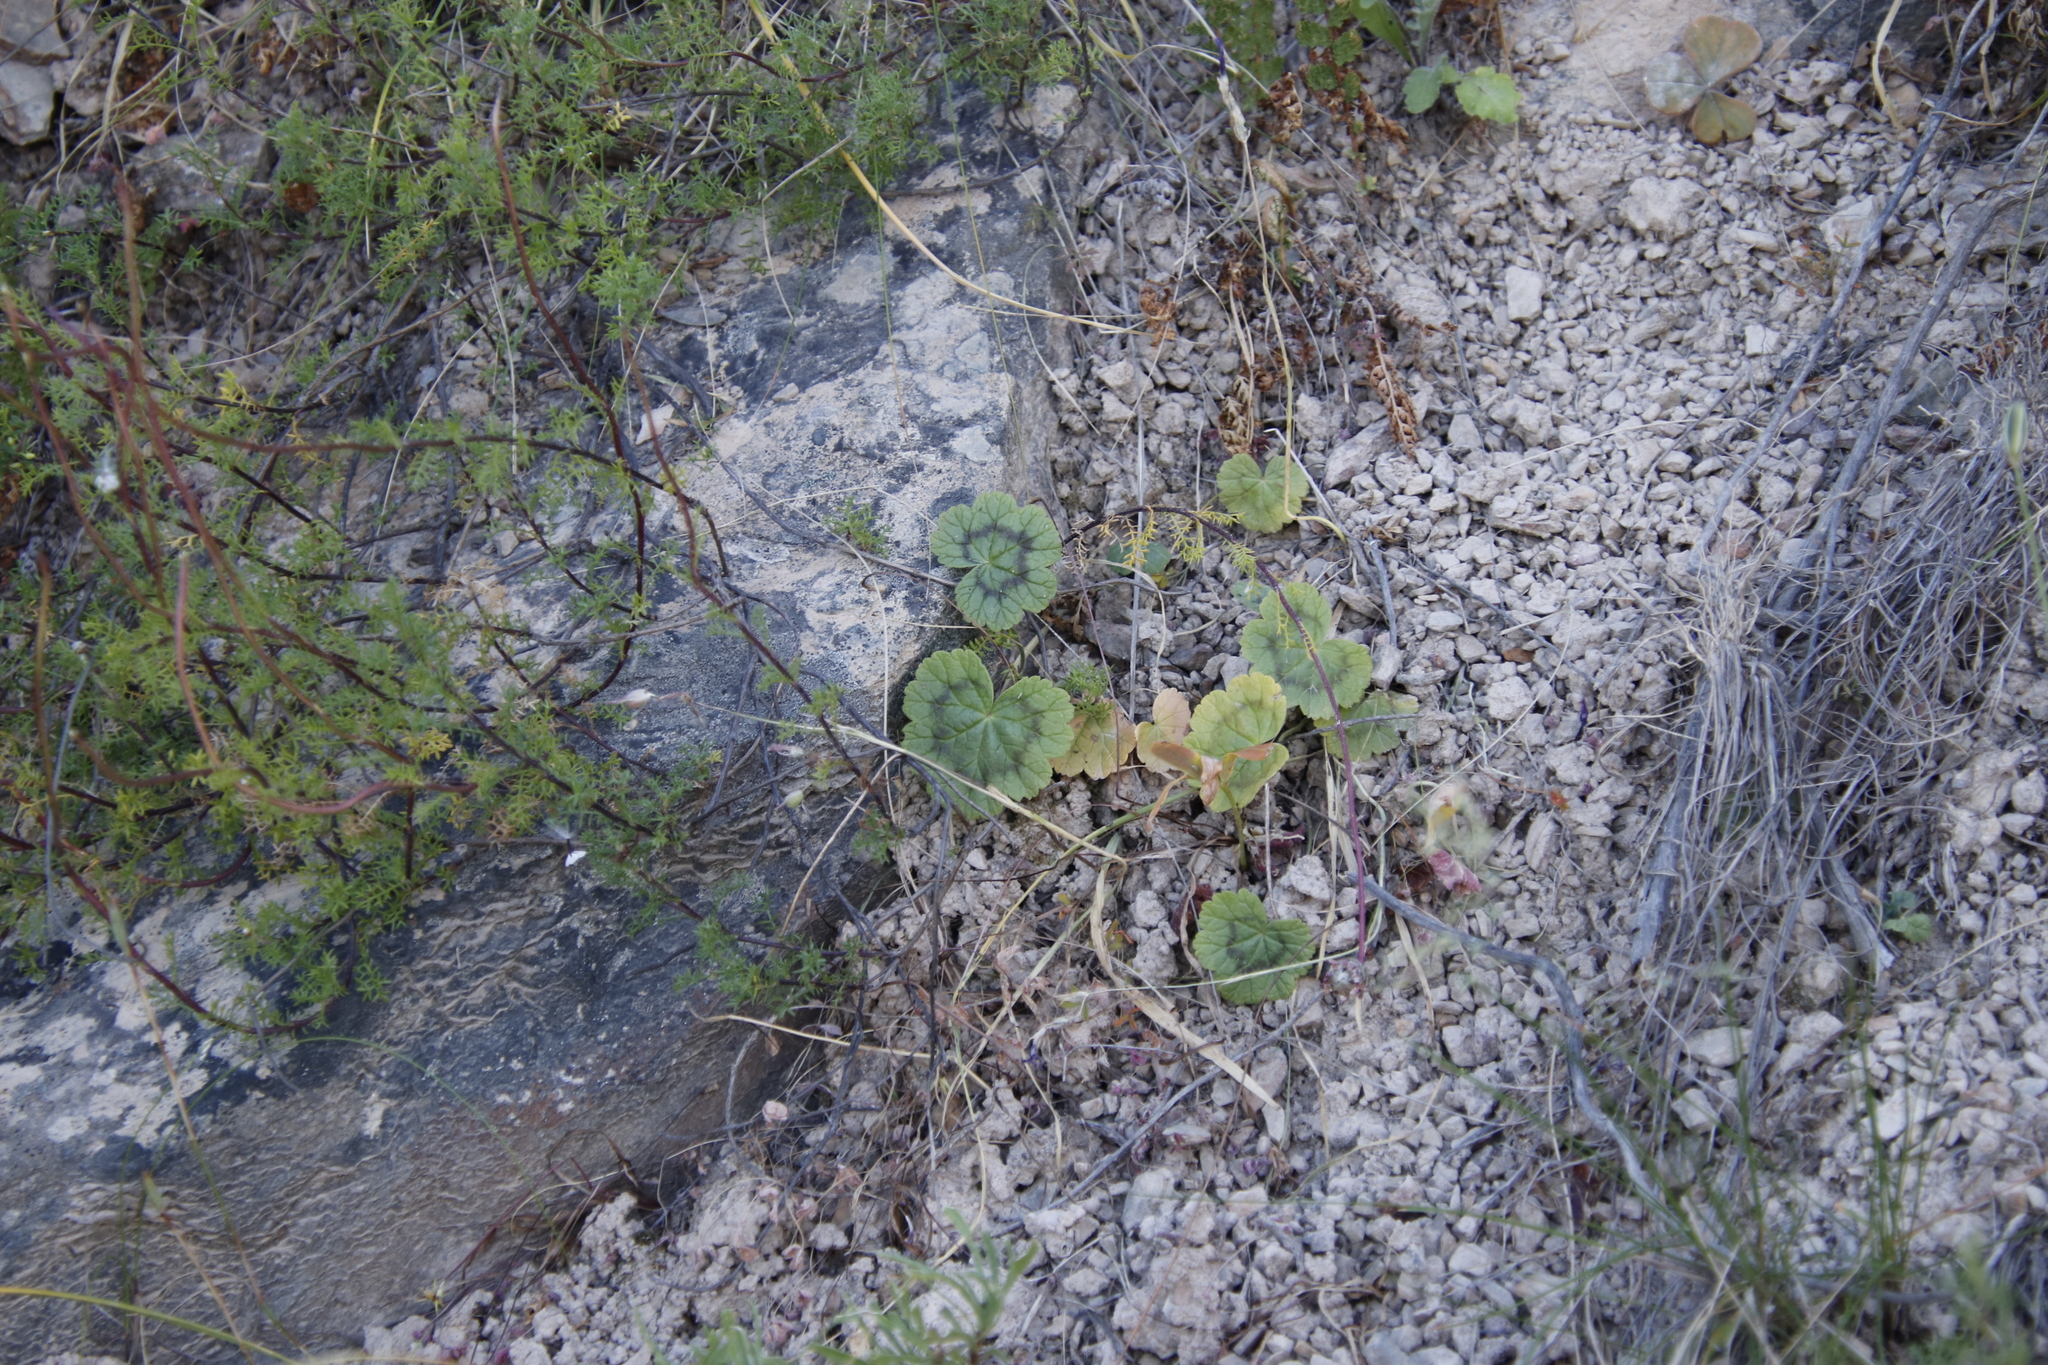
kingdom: Plantae
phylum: Tracheophyta
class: Magnoliopsida
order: Geraniales
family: Geraniaceae
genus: Pelargonium
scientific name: Pelargonium articulatum
